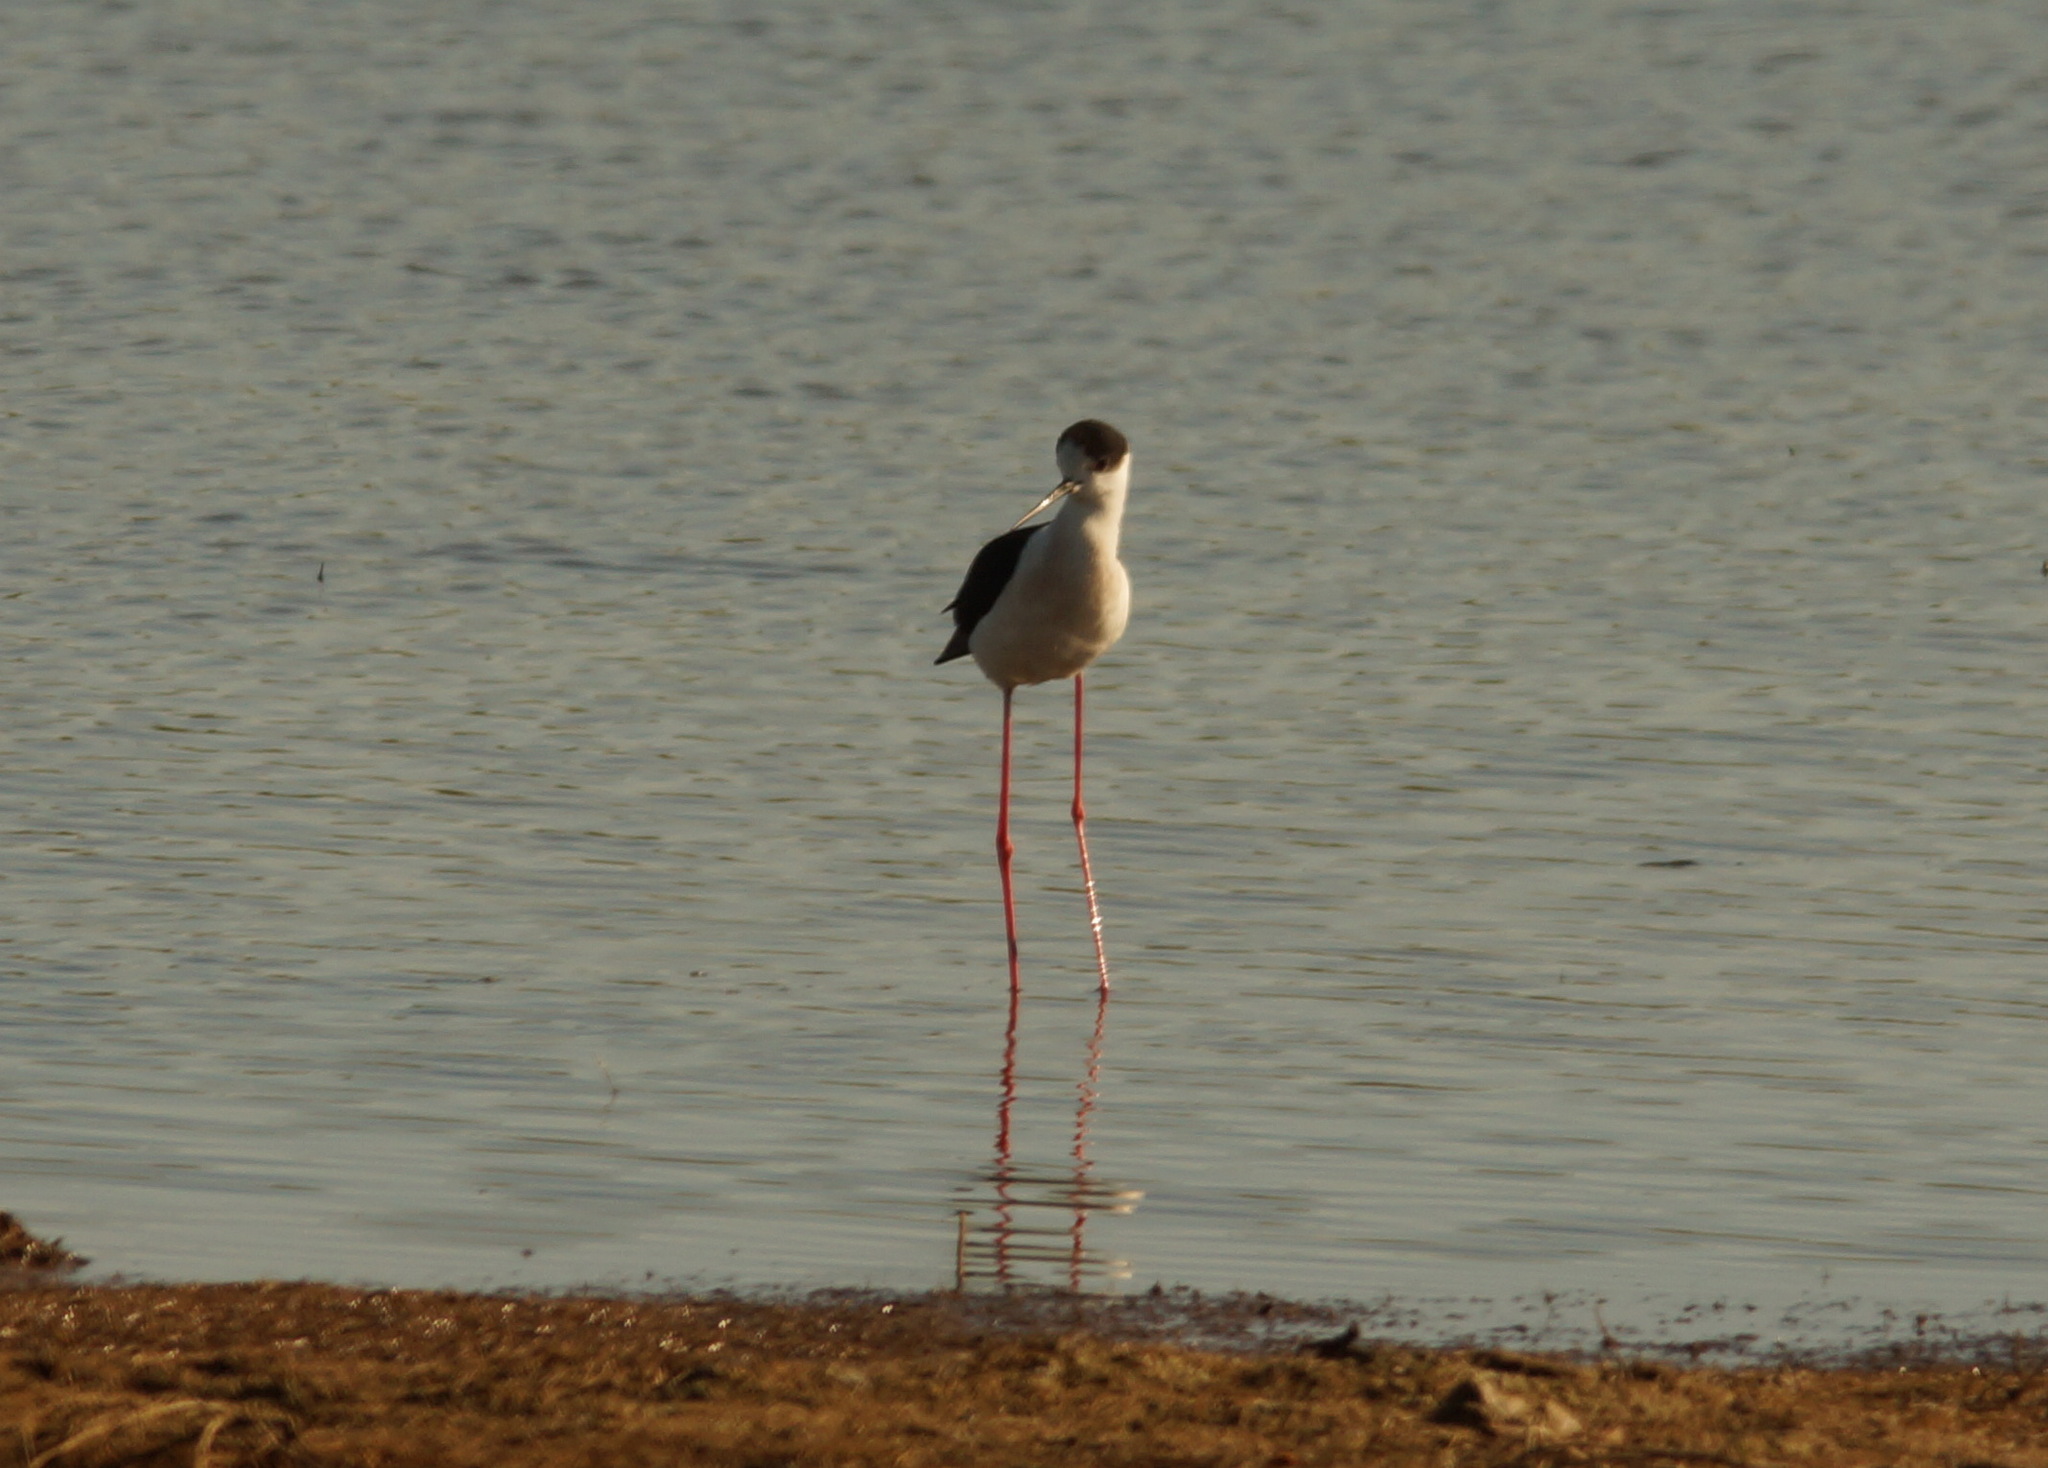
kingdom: Animalia
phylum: Chordata
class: Aves
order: Charadriiformes
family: Recurvirostridae
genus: Himantopus
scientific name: Himantopus himantopus
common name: Black-winged stilt
